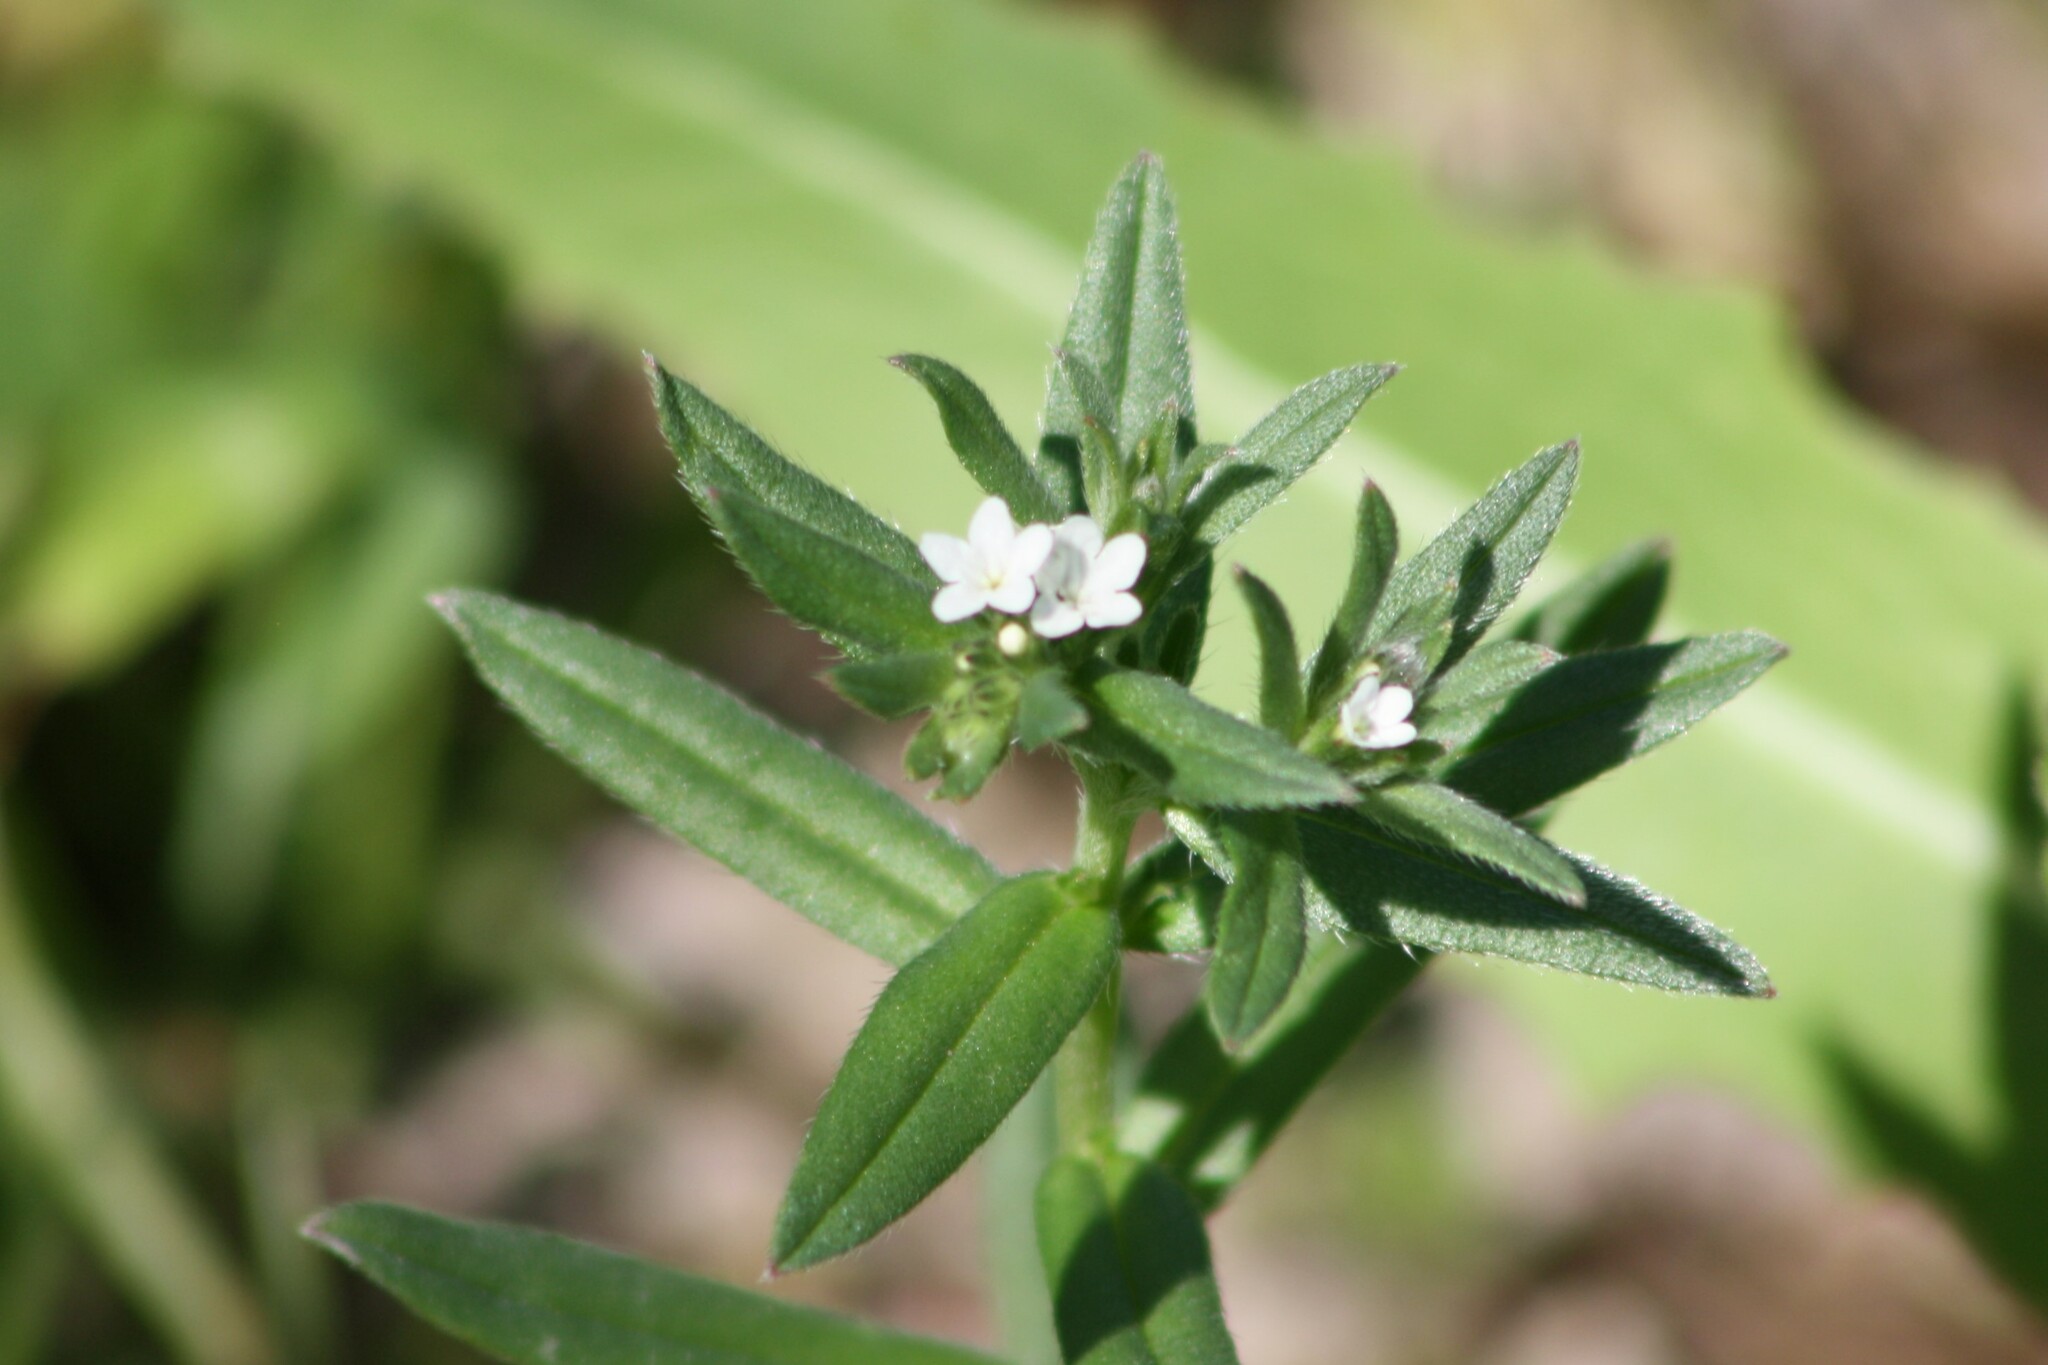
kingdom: Plantae
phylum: Tracheophyta
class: Magnoliopsida
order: Boraginales
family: Boraginaceae
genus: Buglossoides
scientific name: Buglossoides arvensis
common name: Corn gromwell
